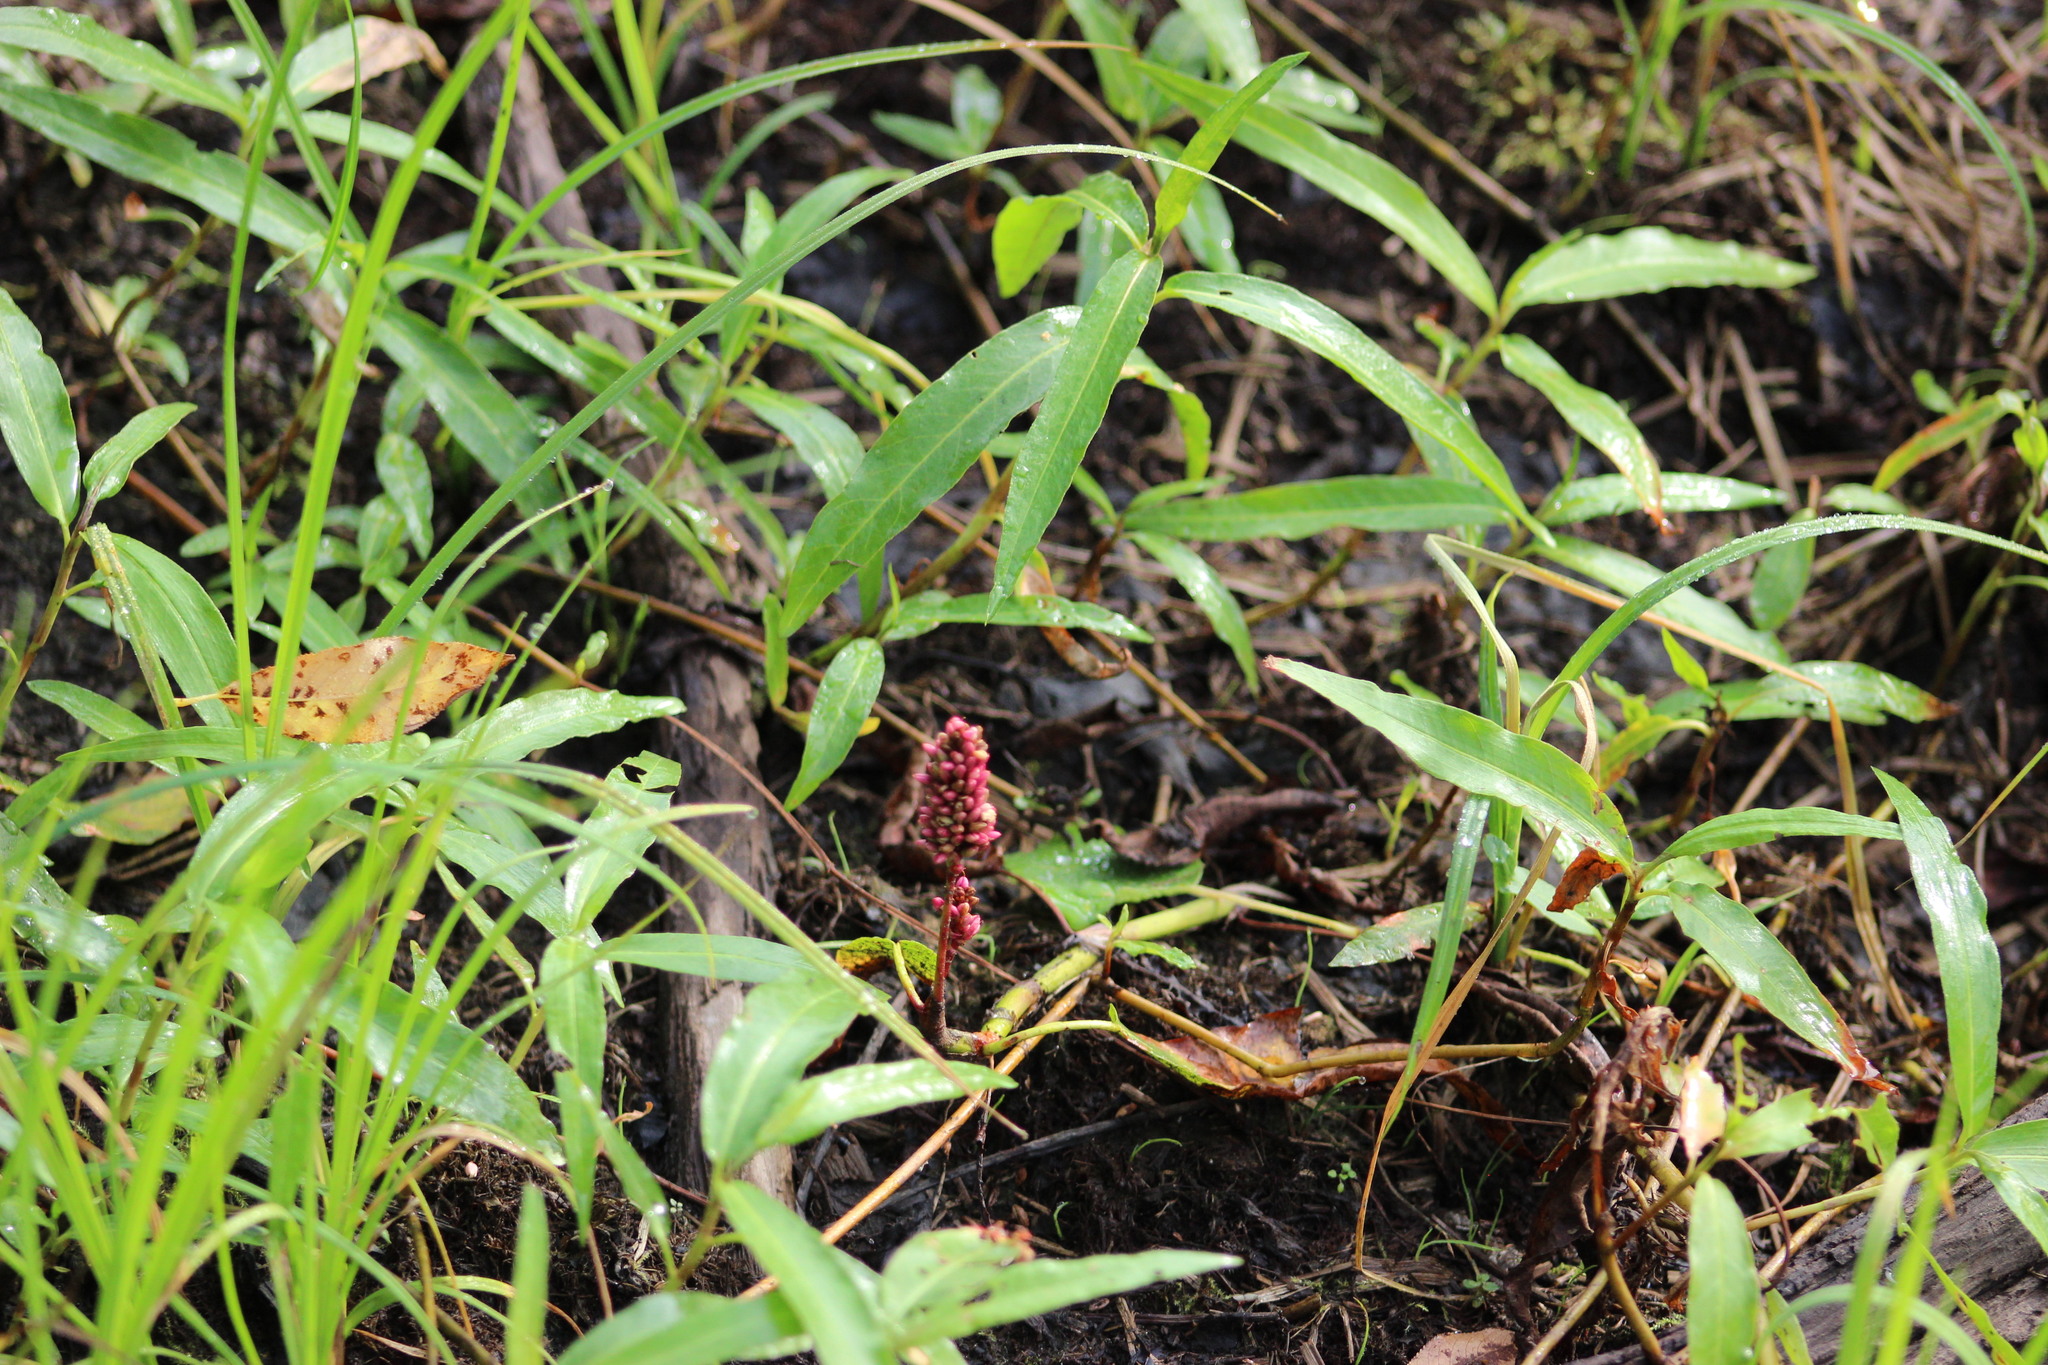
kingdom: Plantae
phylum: Tracheophyta
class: Magnoliopsida
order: Caryophyllales
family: Polygonaceae
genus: Persicaria
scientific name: Persicaria amphibia
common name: Amphibious bistort
